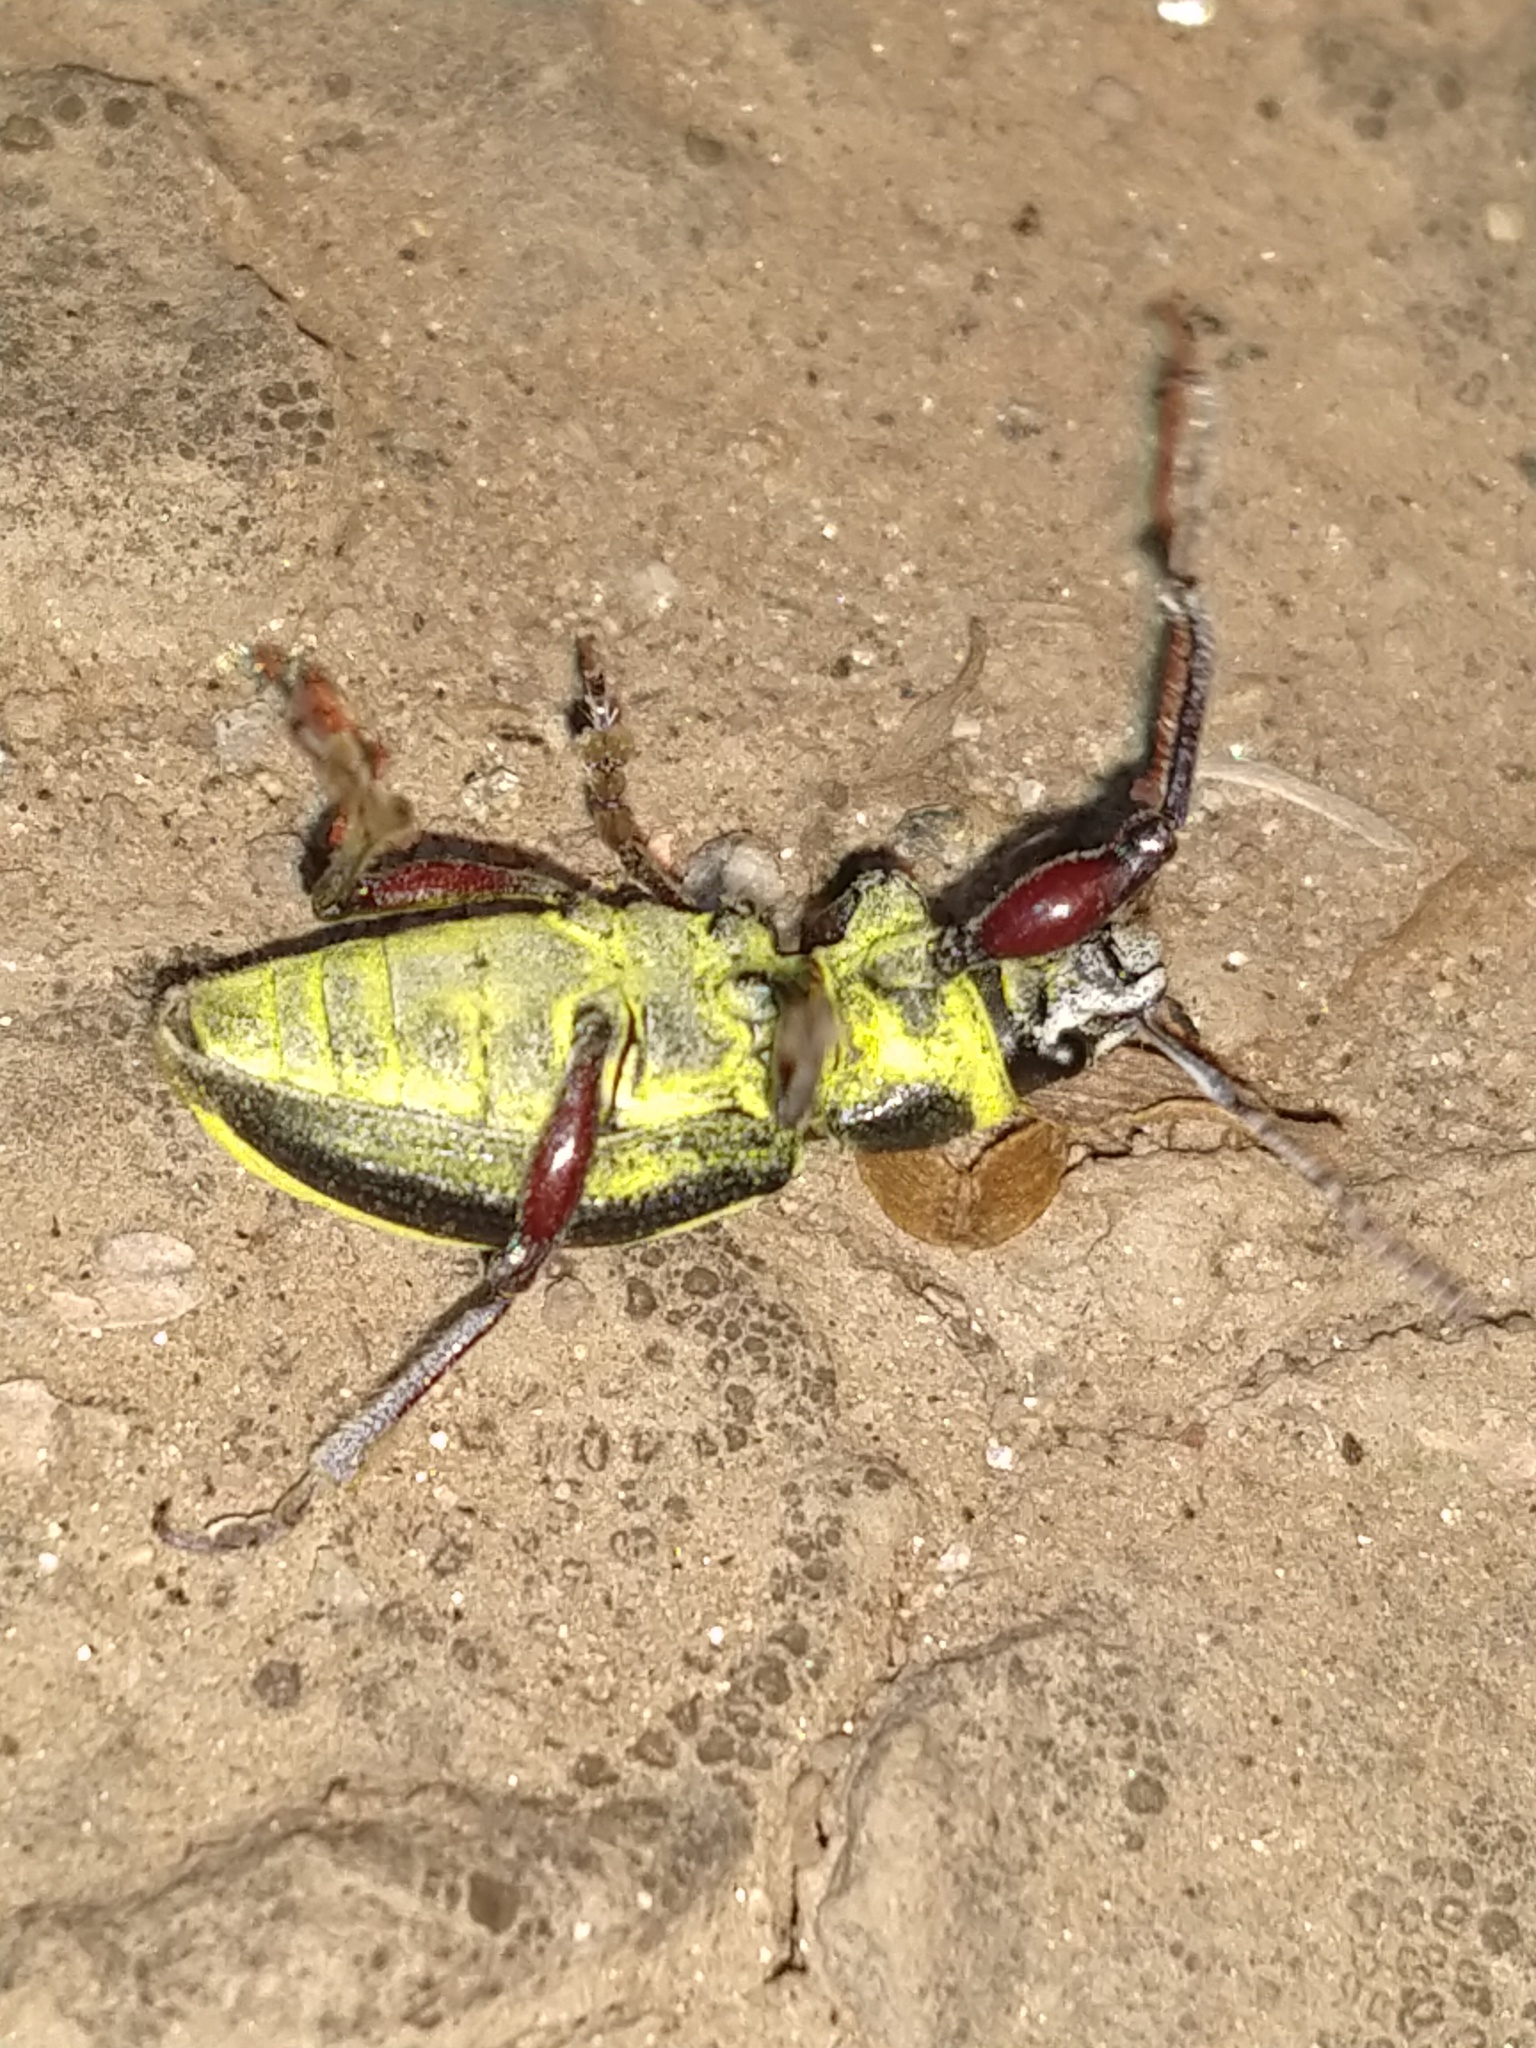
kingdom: Animalia
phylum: Arthropoda
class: Insecta
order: Coleoptera
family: Curculionidae
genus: Naupactus
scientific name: Naupactus sulphurifer
